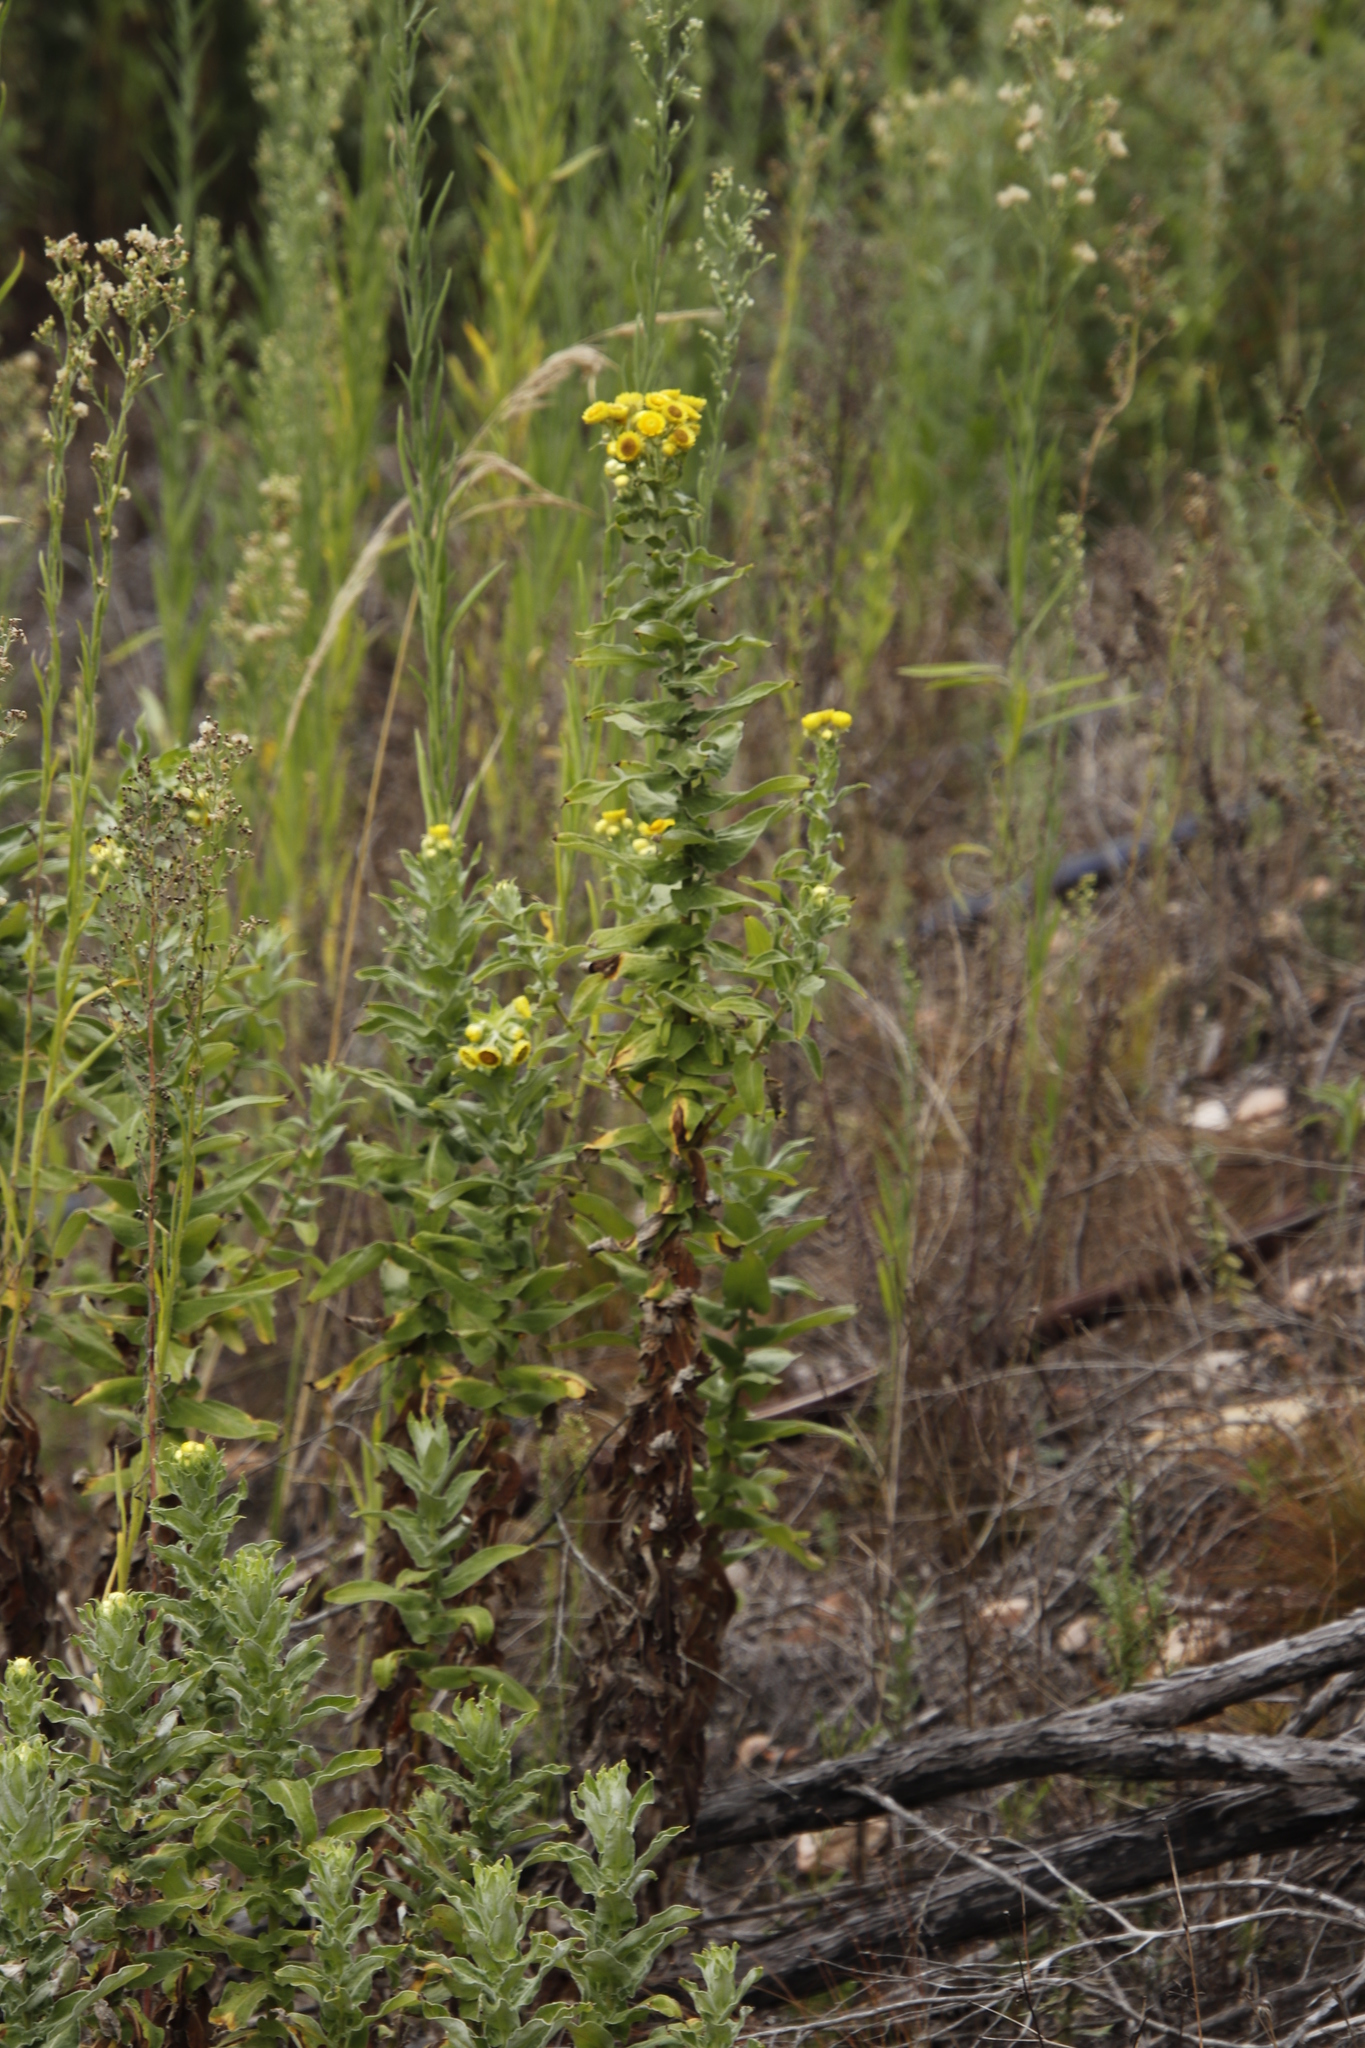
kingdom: Plantae
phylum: Tracheophyta
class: Magnoliopsida
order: Asterales
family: Asteraceae
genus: Helichrysum
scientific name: Helichrysum foetidum
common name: Stinking everlasting
